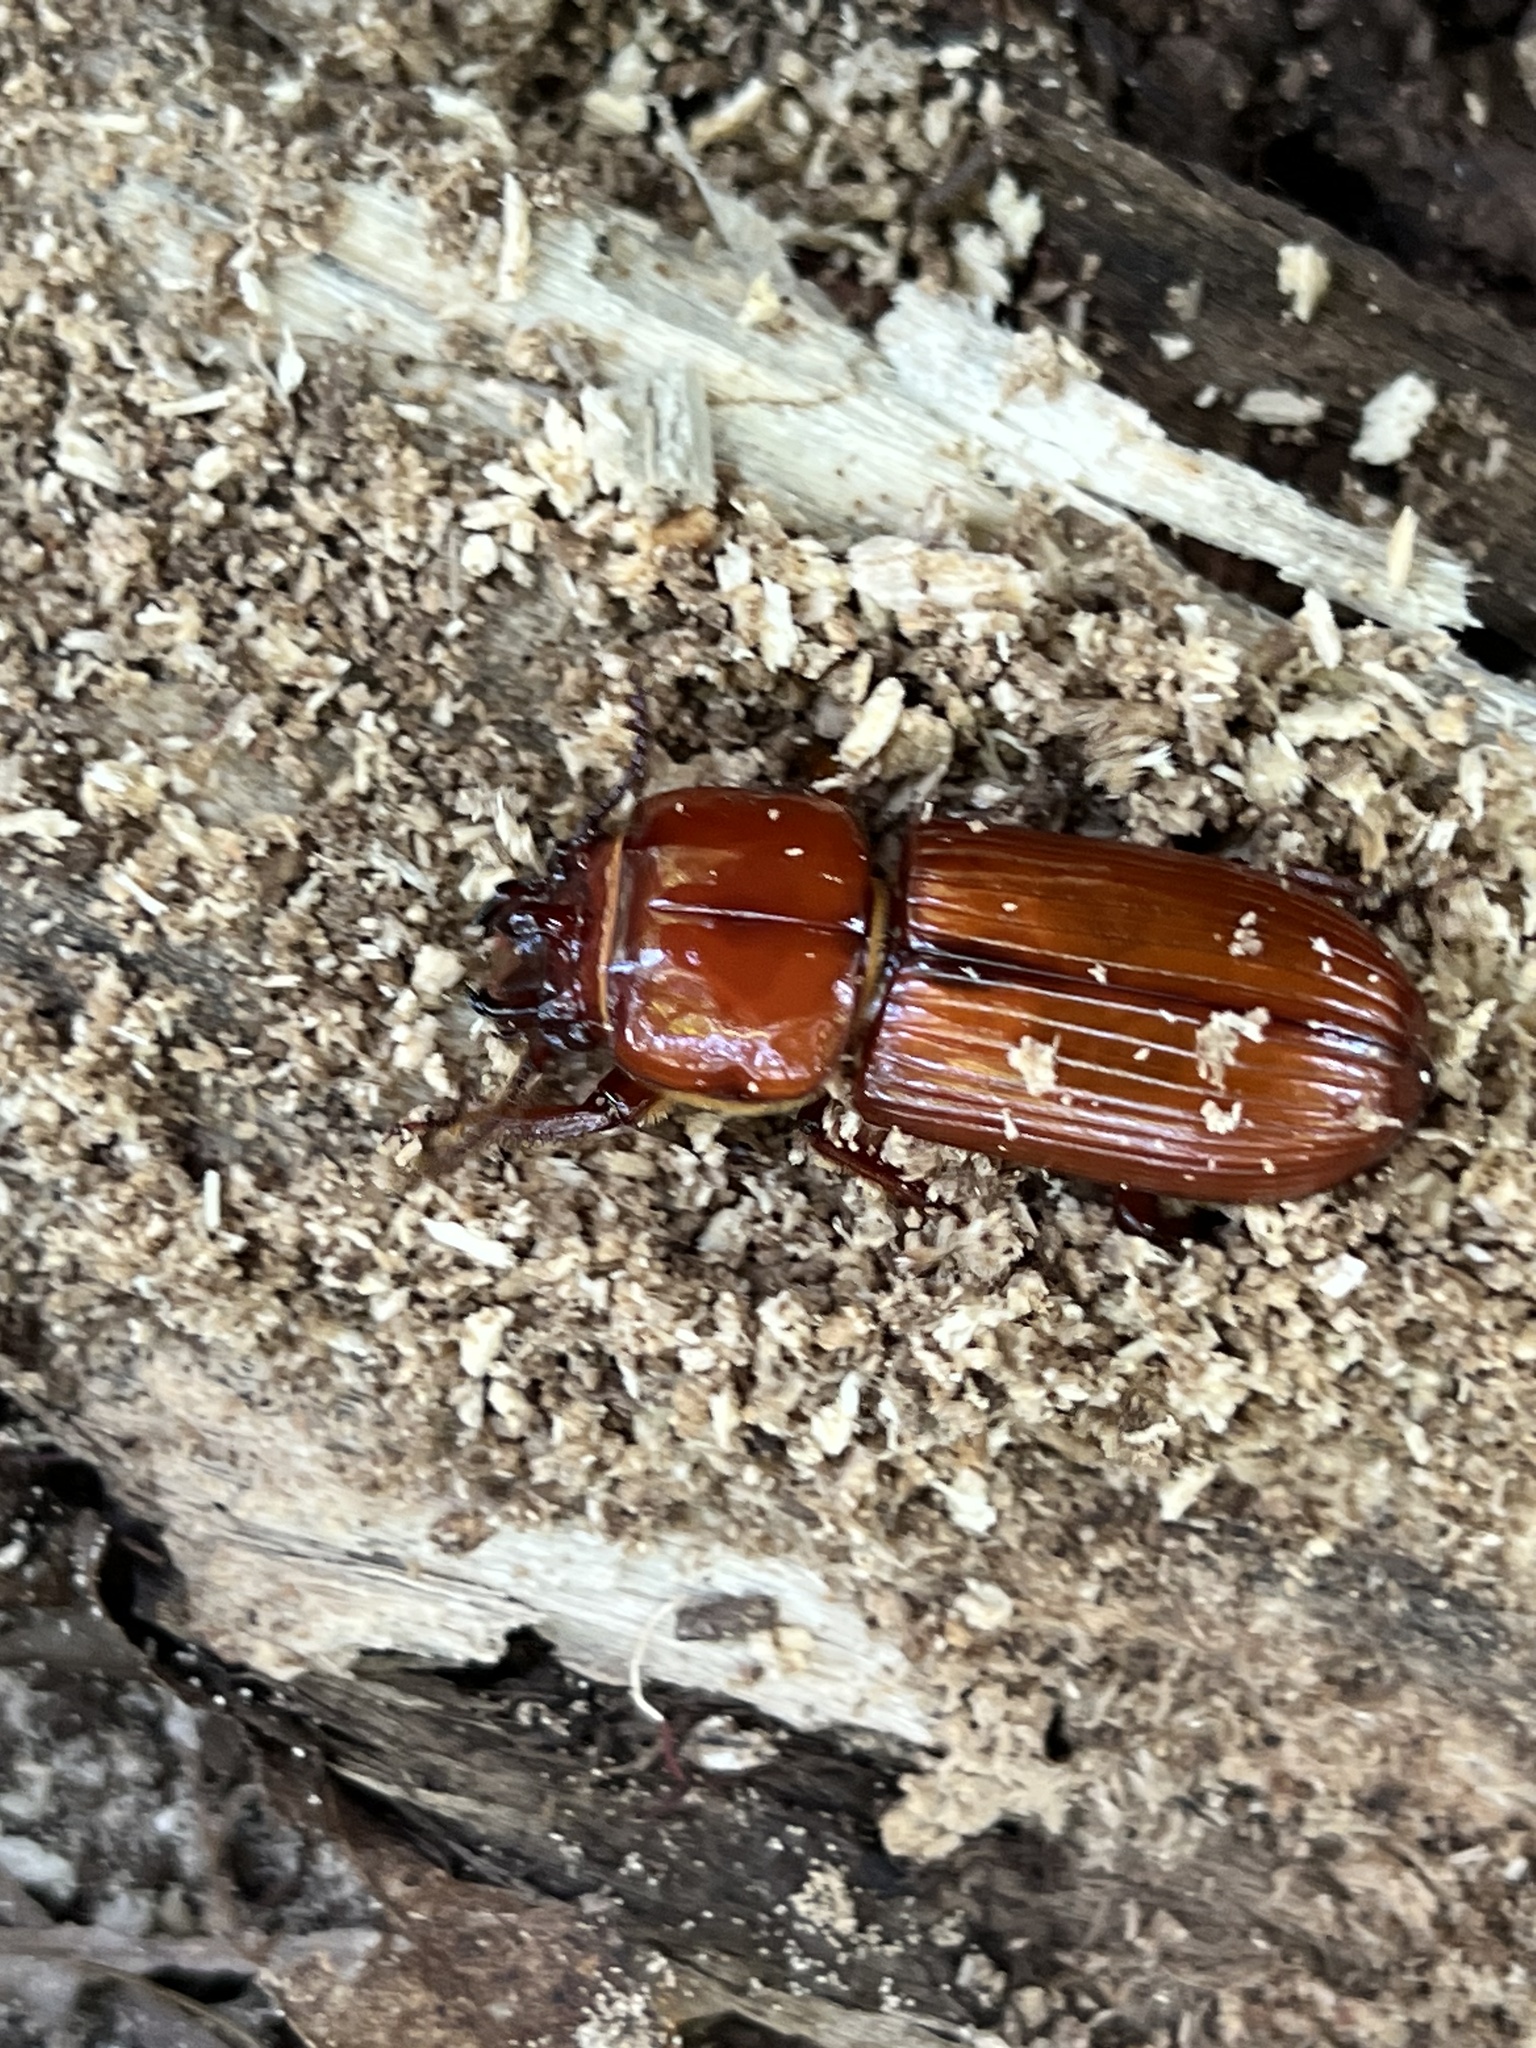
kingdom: Animalia
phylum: Arthropoda
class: Insecta
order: Coleoptera
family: Passalidae
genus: Odontotaenius
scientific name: Odontotaenius disjunctus
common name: Patent leather beetle
